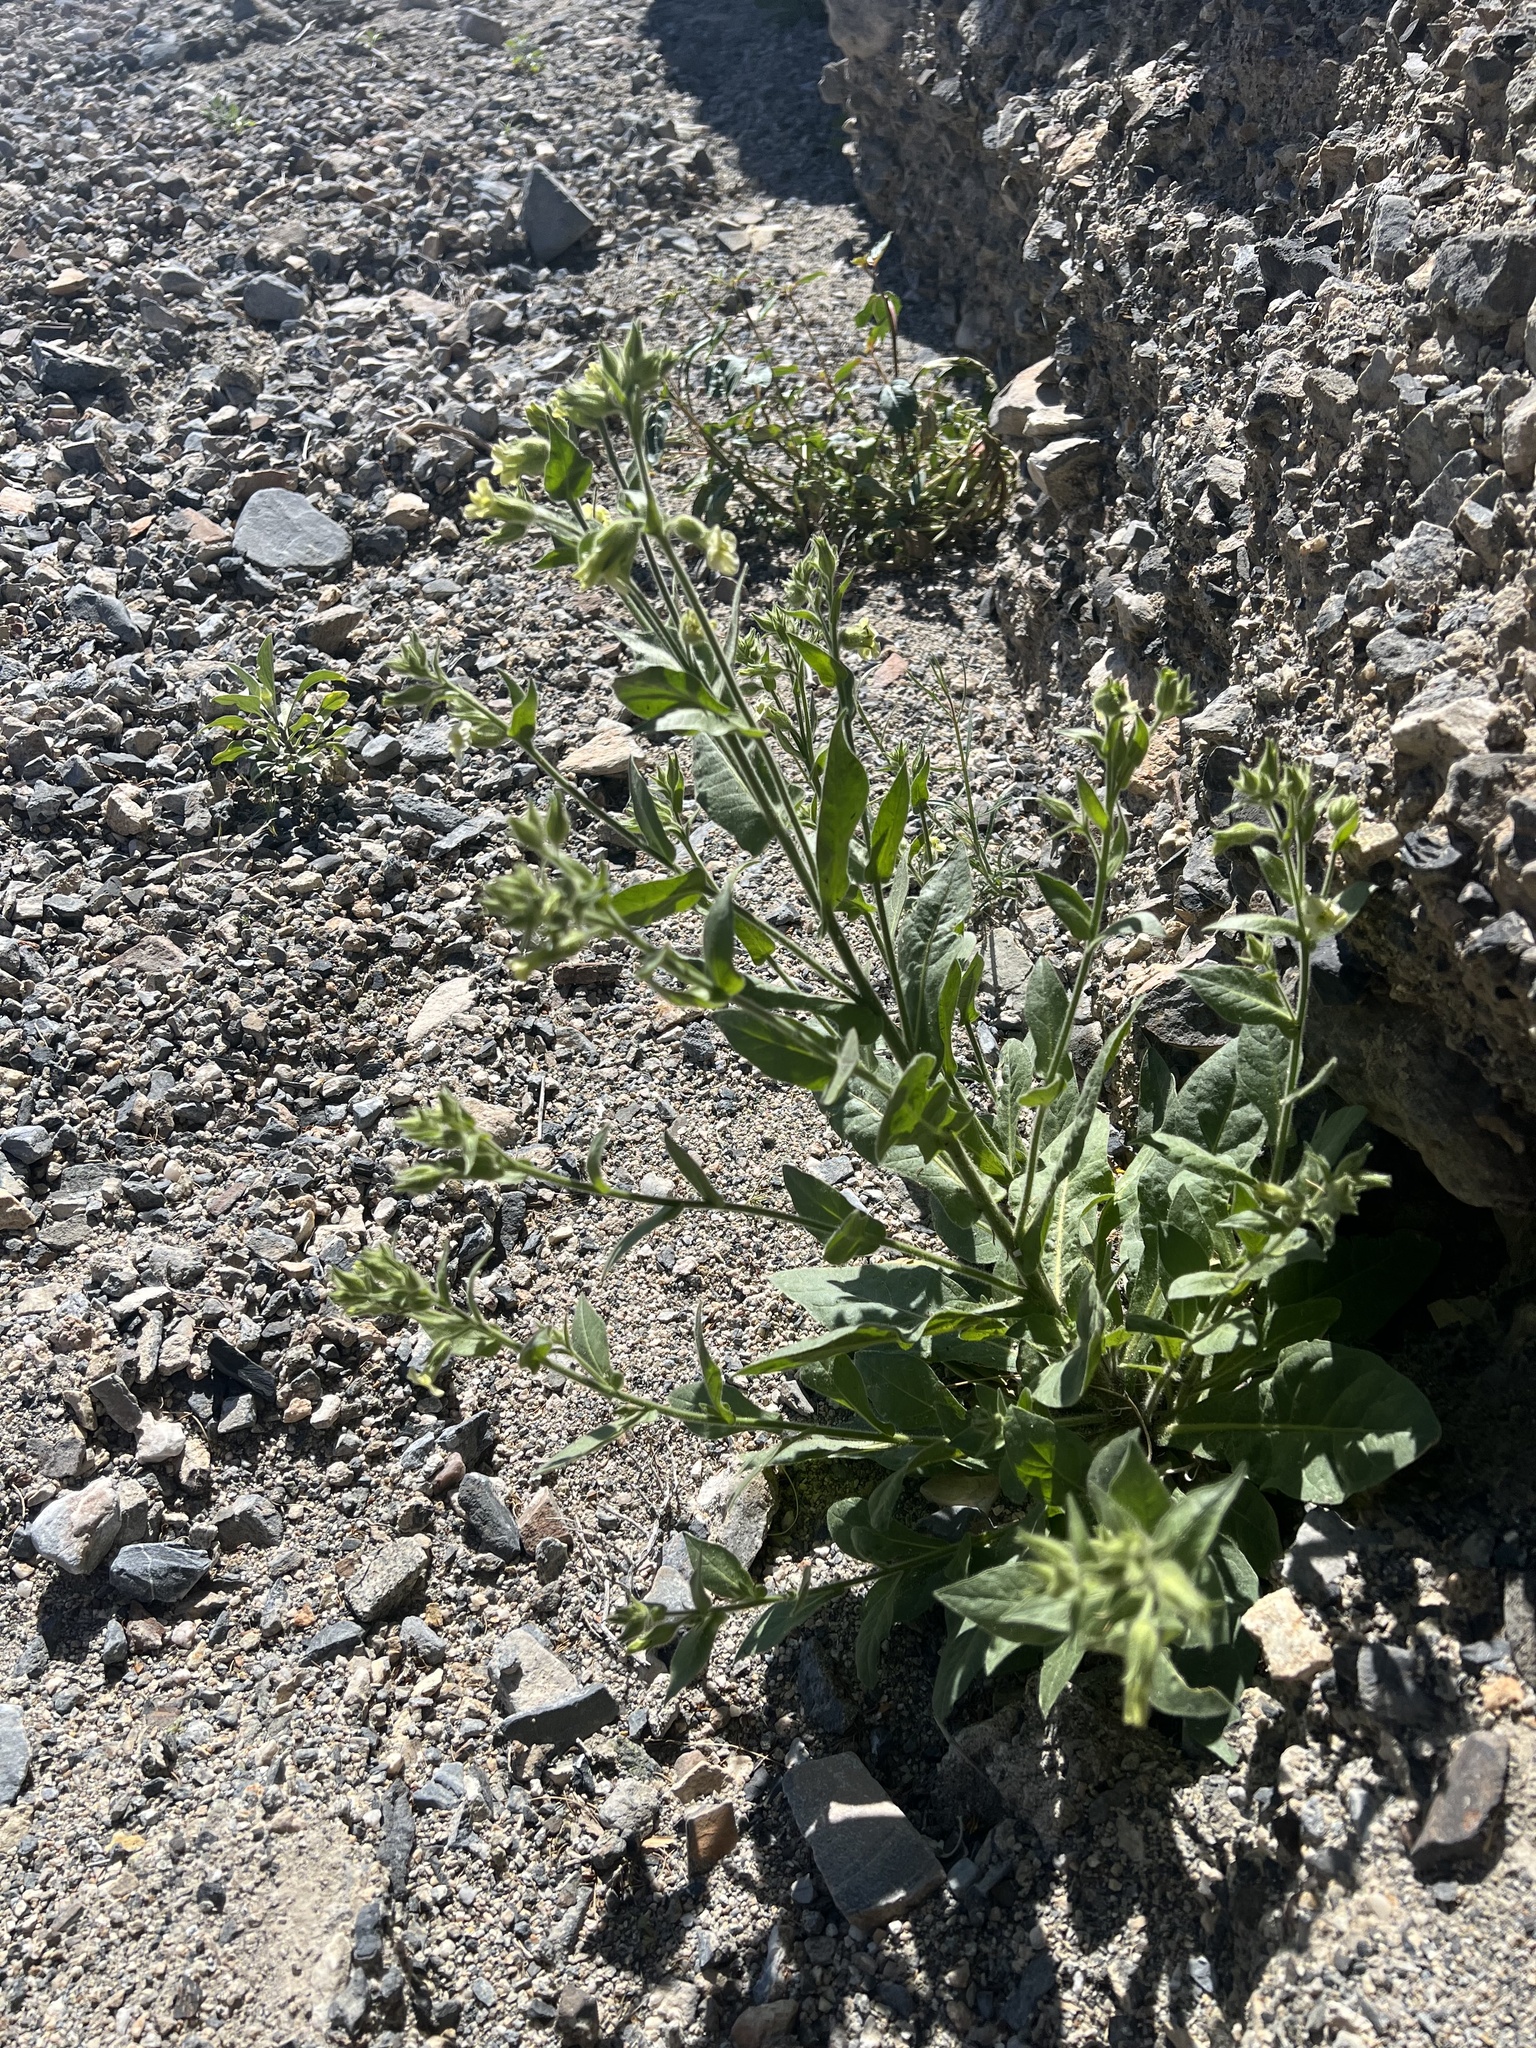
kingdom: Plantae
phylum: Tracheophyta
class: Magnoliopsida
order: Solanales
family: Solanaceae
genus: Nicotiana
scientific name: Nicotiana obtusifolia
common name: Desert tobacco
